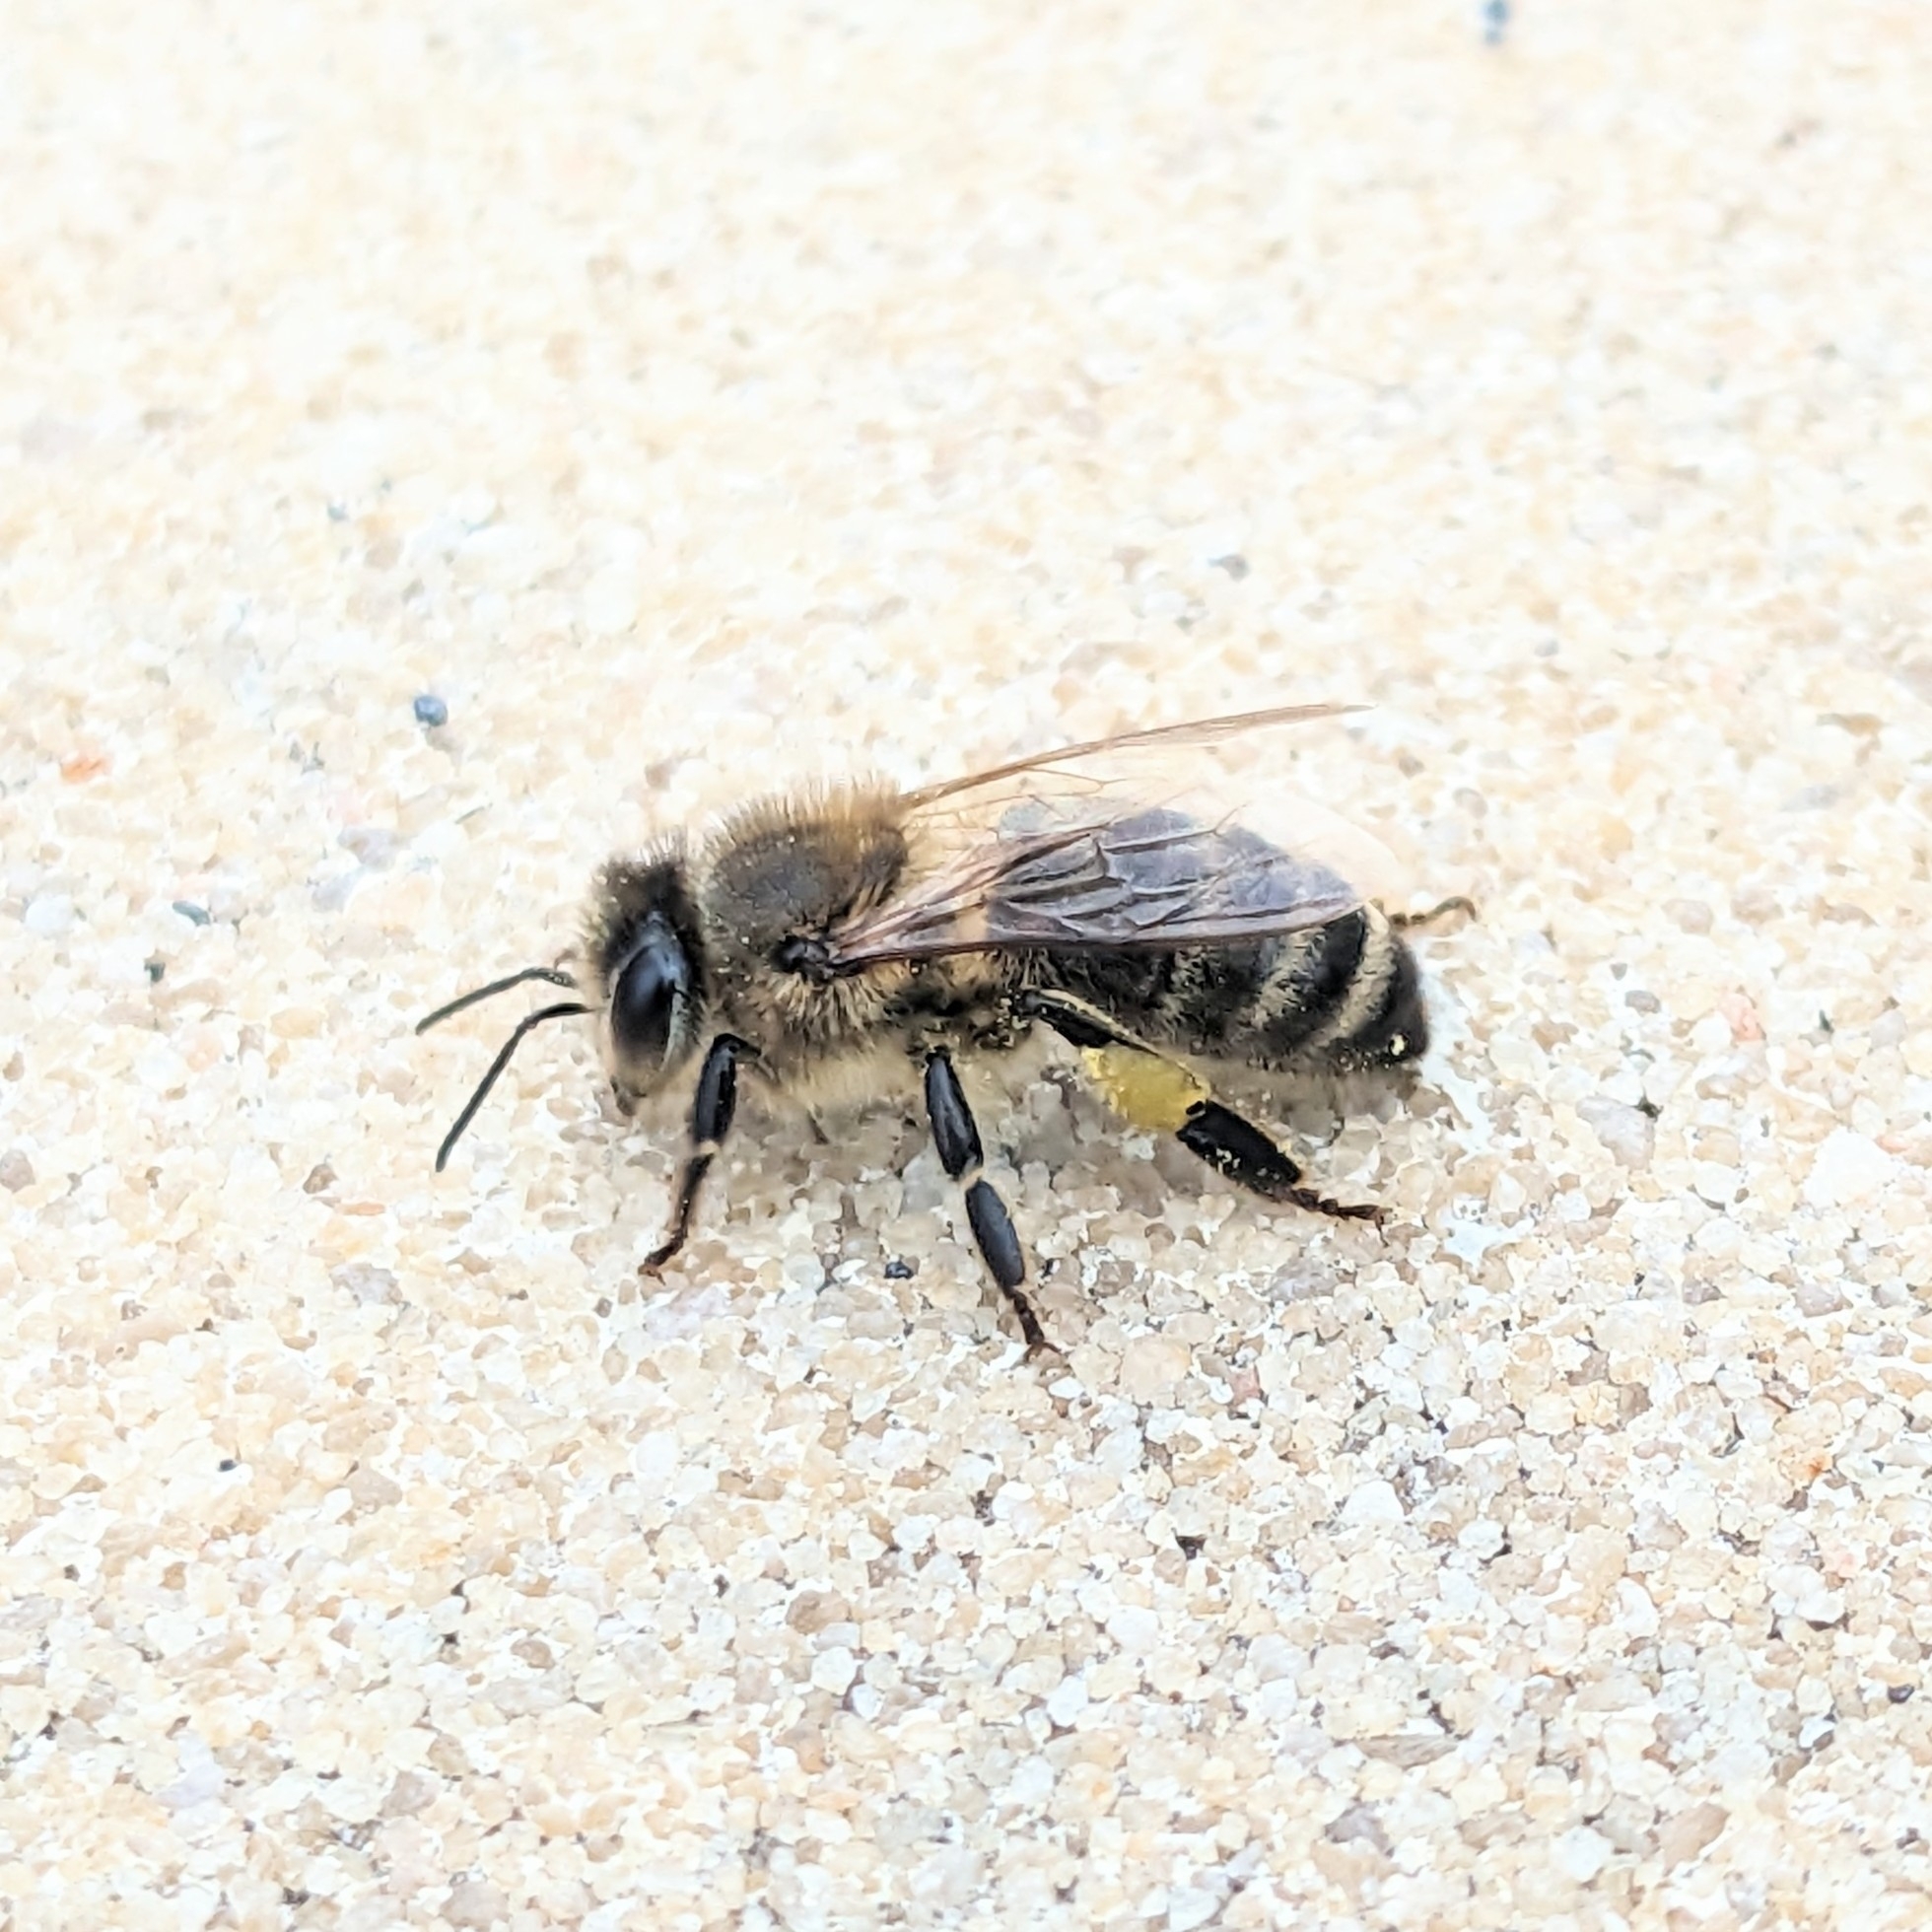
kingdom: Animalia
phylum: Arthropoda
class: Insecta
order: Hymenoptera
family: Apidae
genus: Apis
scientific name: Apis mellifera
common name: Honey bee
